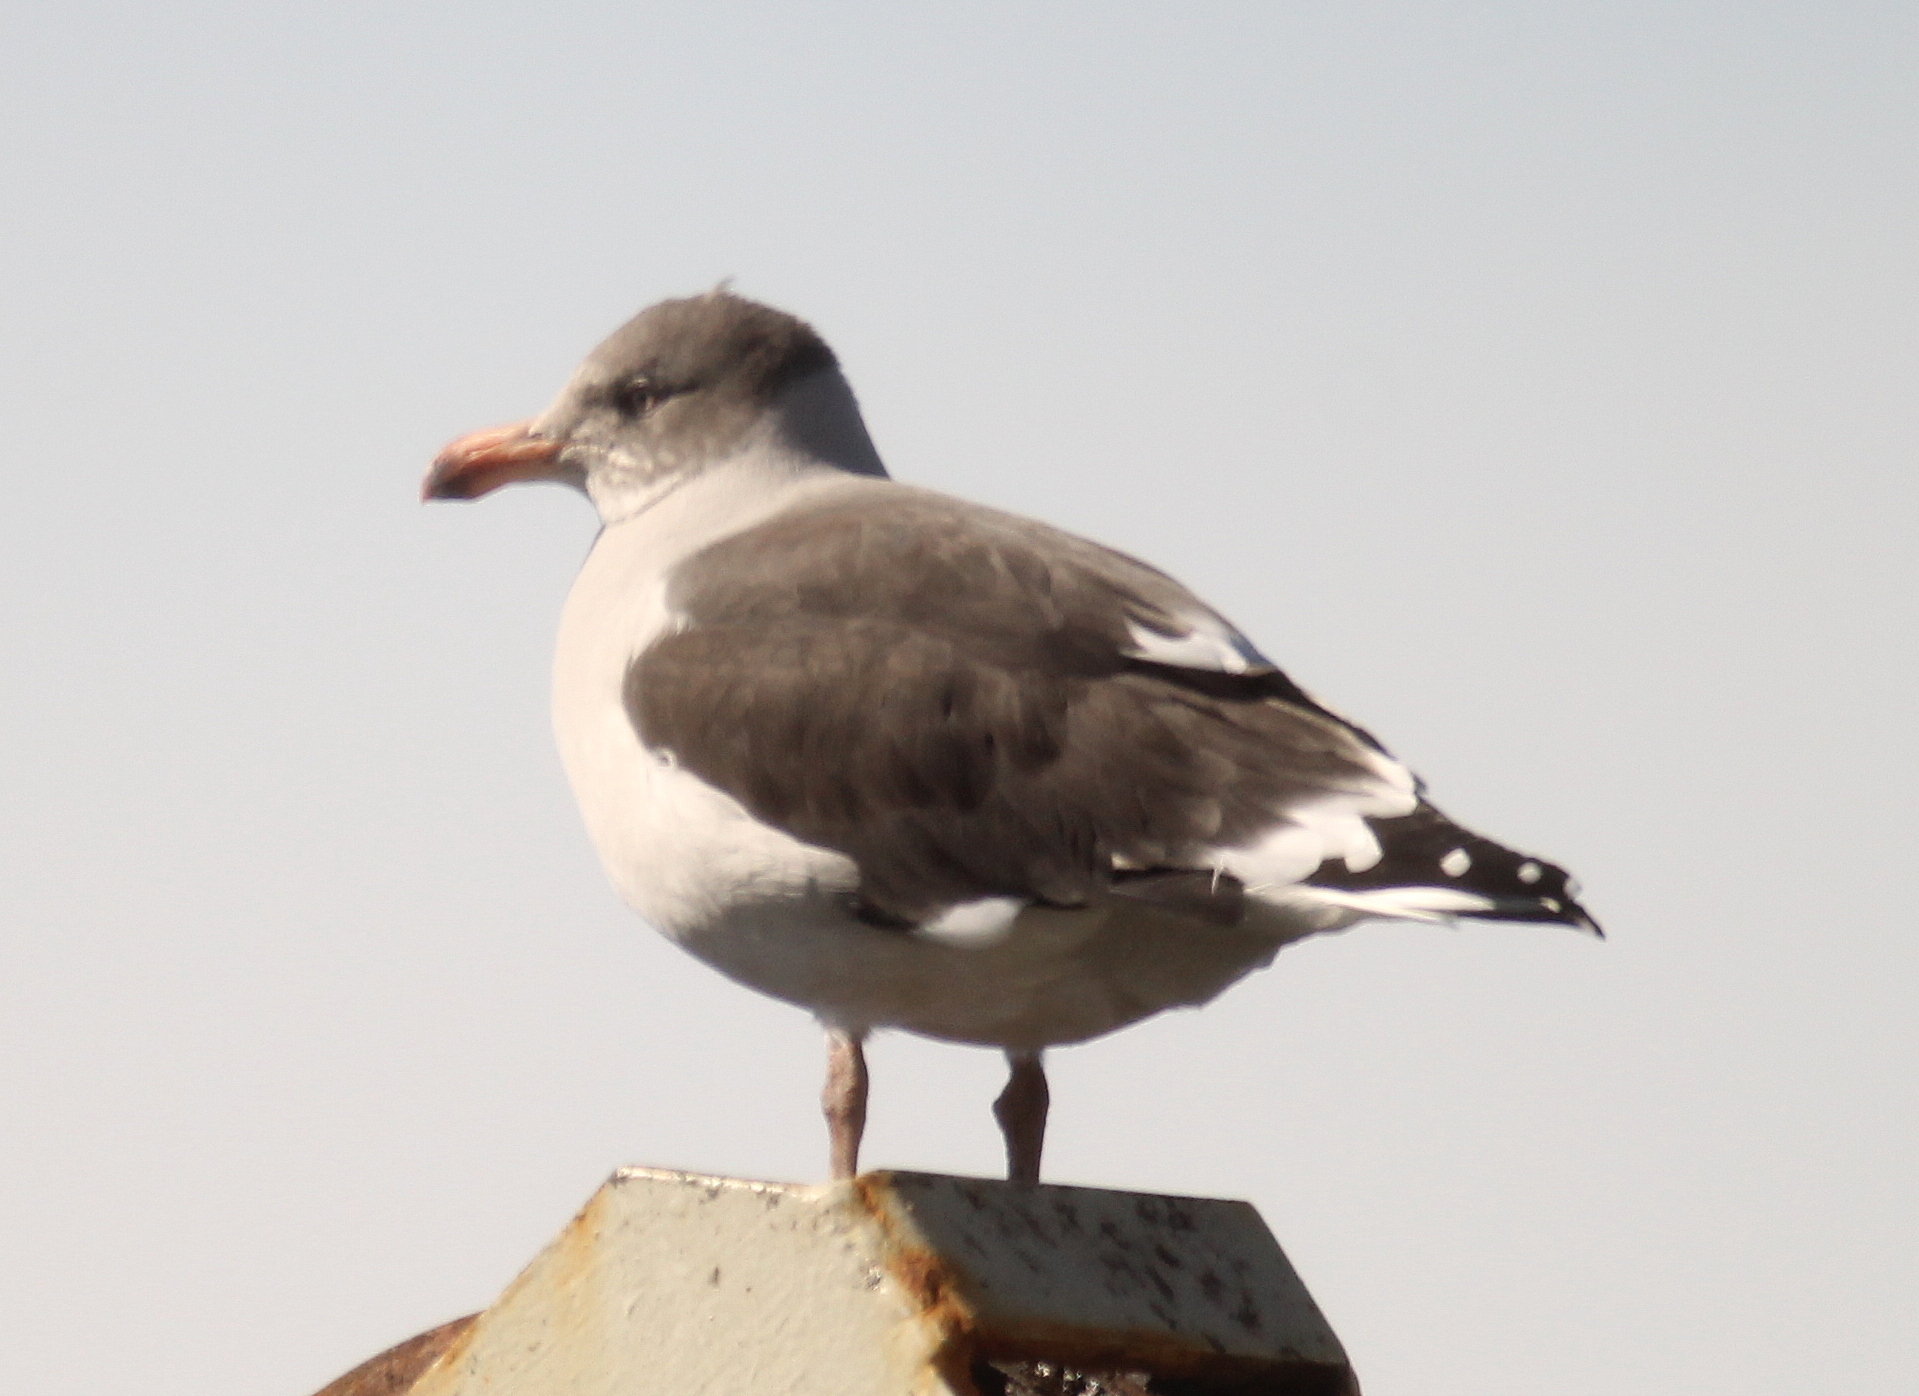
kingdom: Animalia
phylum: Chordata
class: Aves
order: Charadriiformes
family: Laridae
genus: Leucophaeus
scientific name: Leucophaeus scoresbii
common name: Dolphin gull
